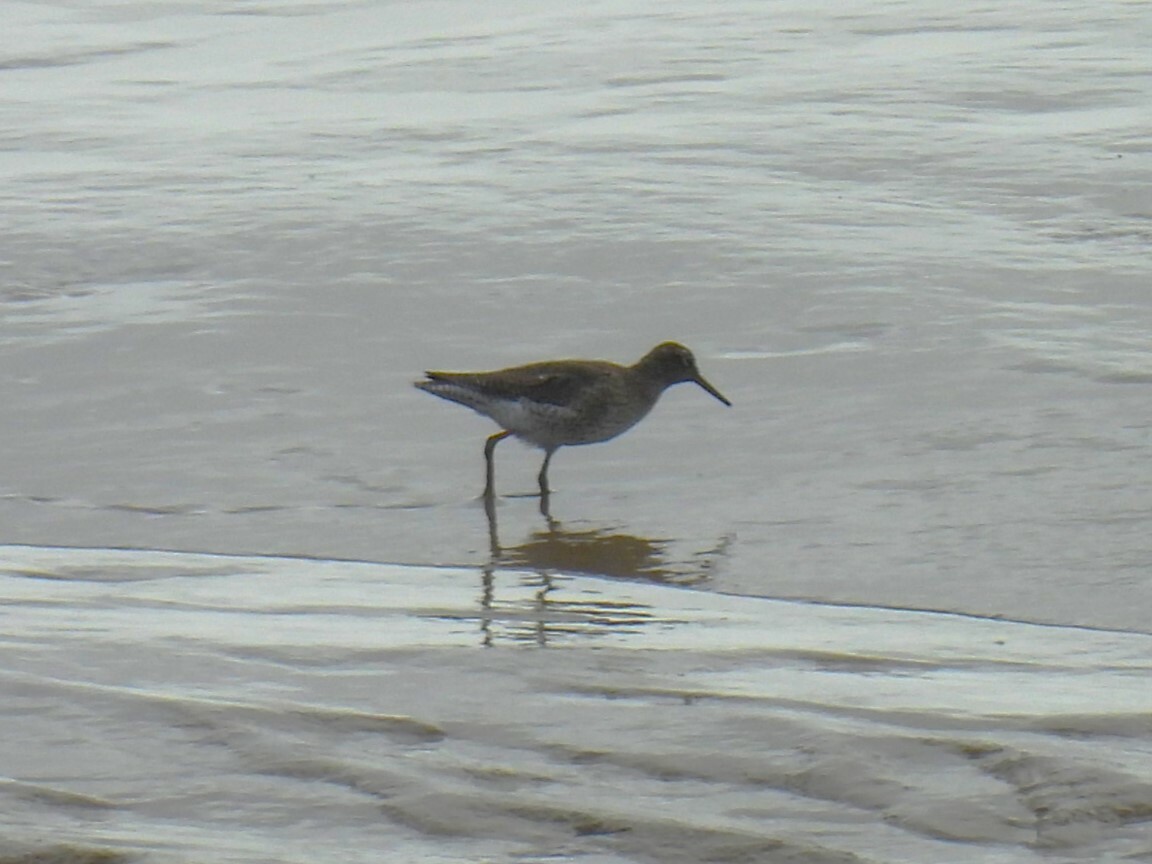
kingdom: Animalia
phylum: Chordata
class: Aves
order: Charadriiformes
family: Scolopacidae
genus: Tringa
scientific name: Tringa totanus
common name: Common redshank
